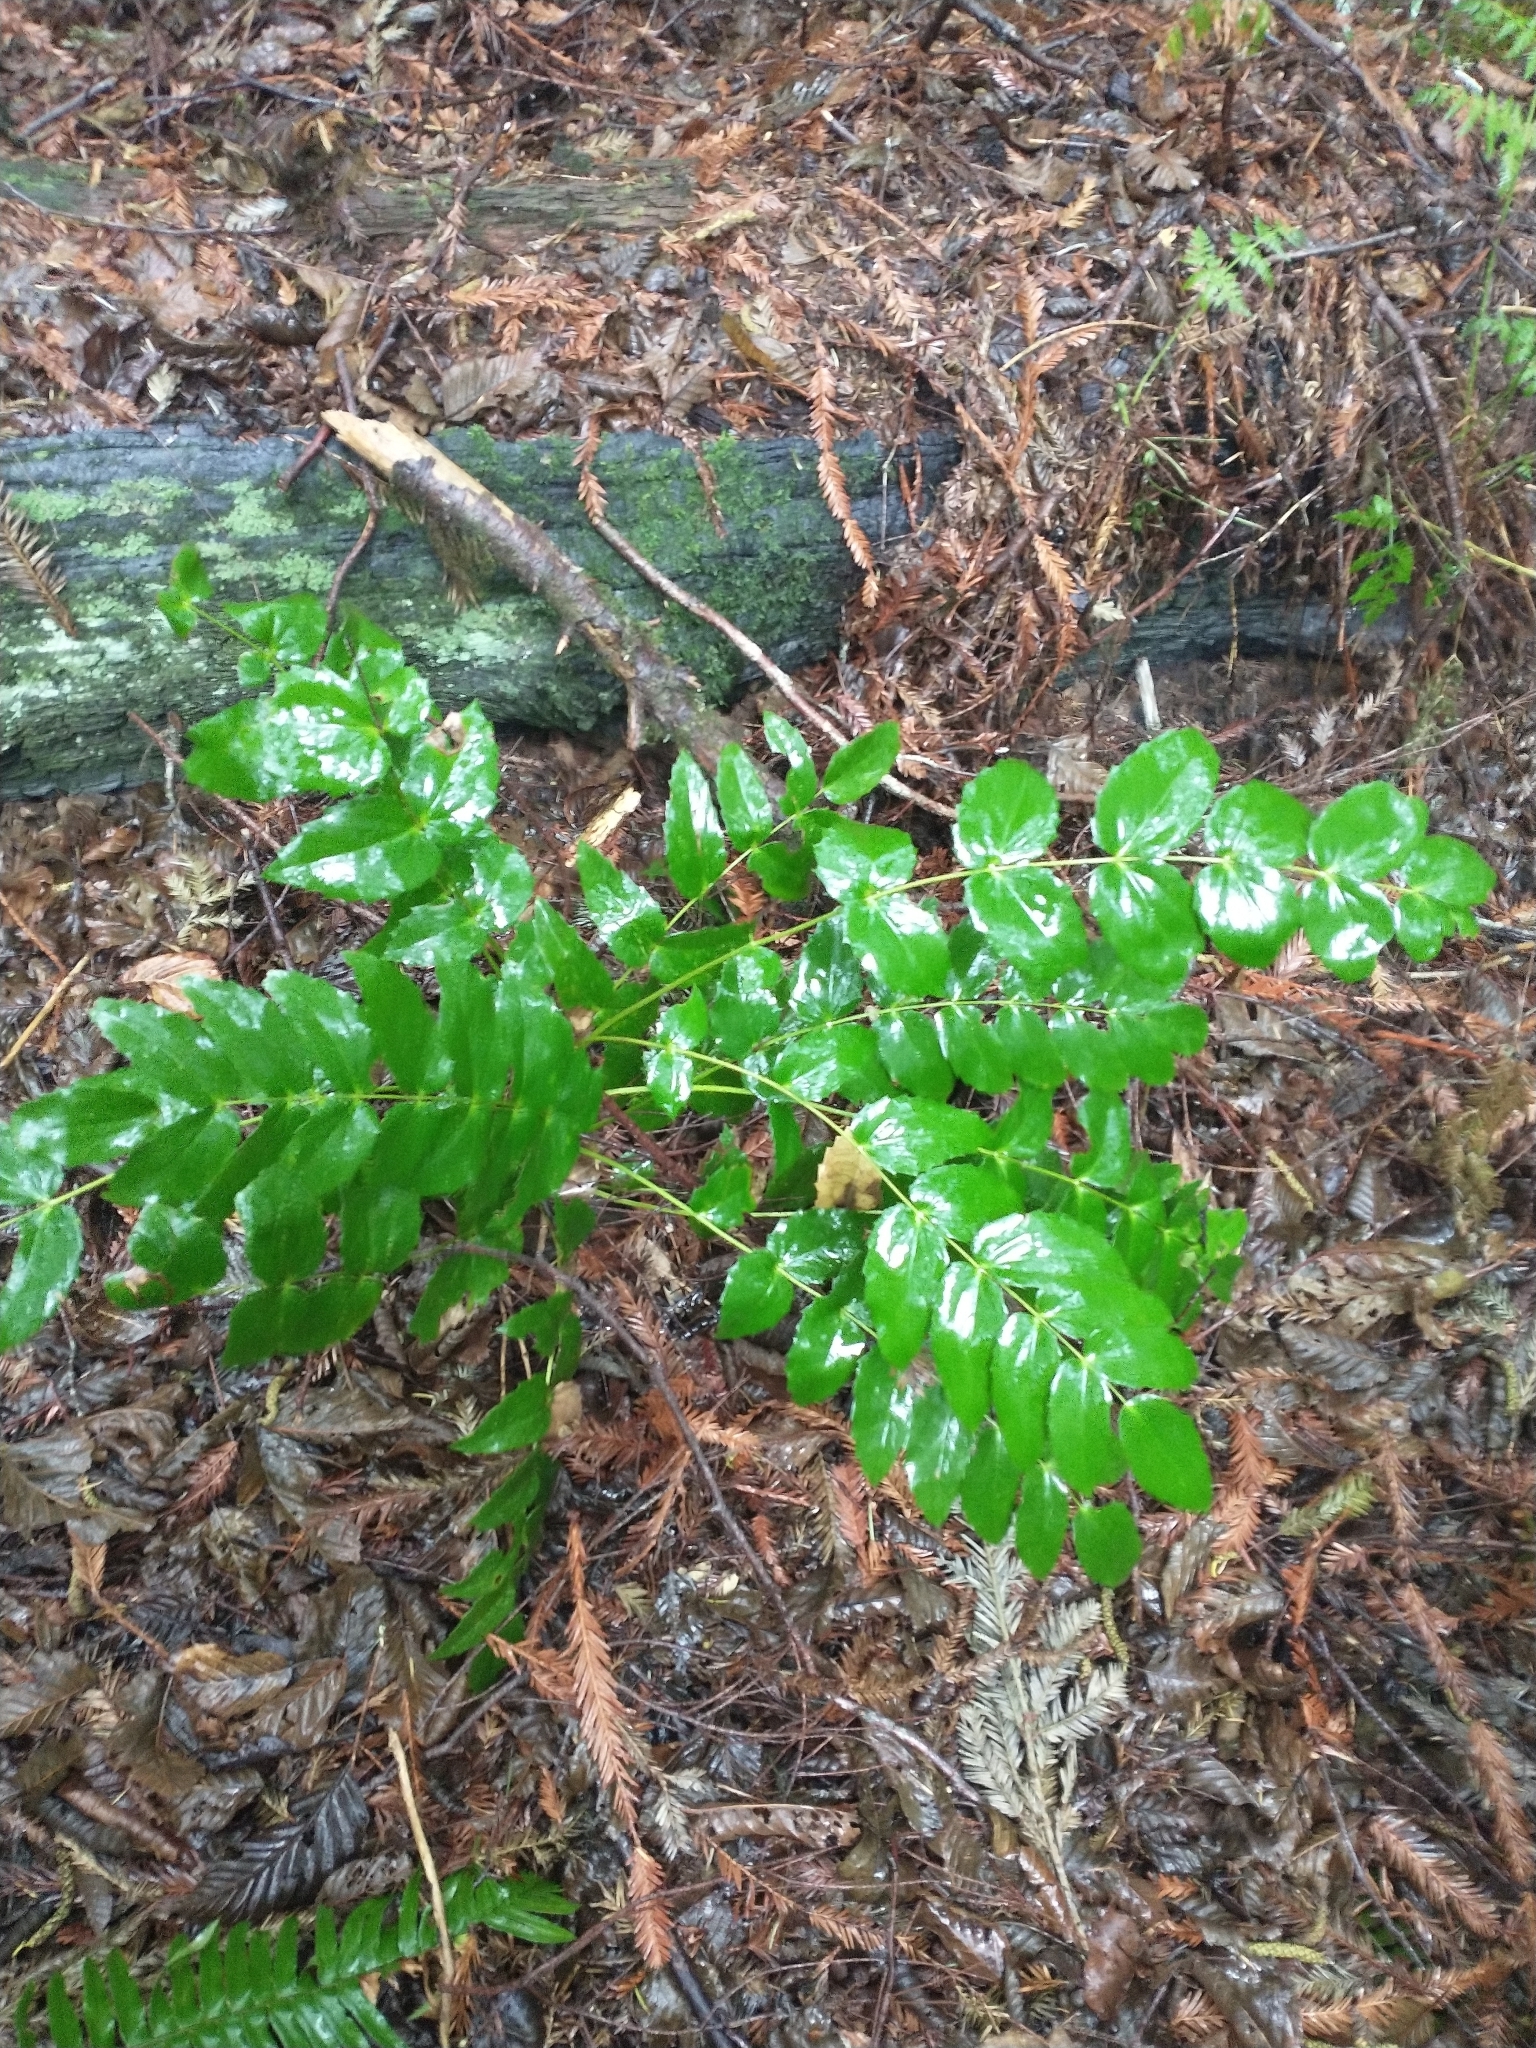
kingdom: Plantae
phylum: Tracheophyta
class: Magnoliopsida
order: Ranunculales
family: Berberidaceae
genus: Mahonia
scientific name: Mahonia nervosa
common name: Cascade oregon-grape
